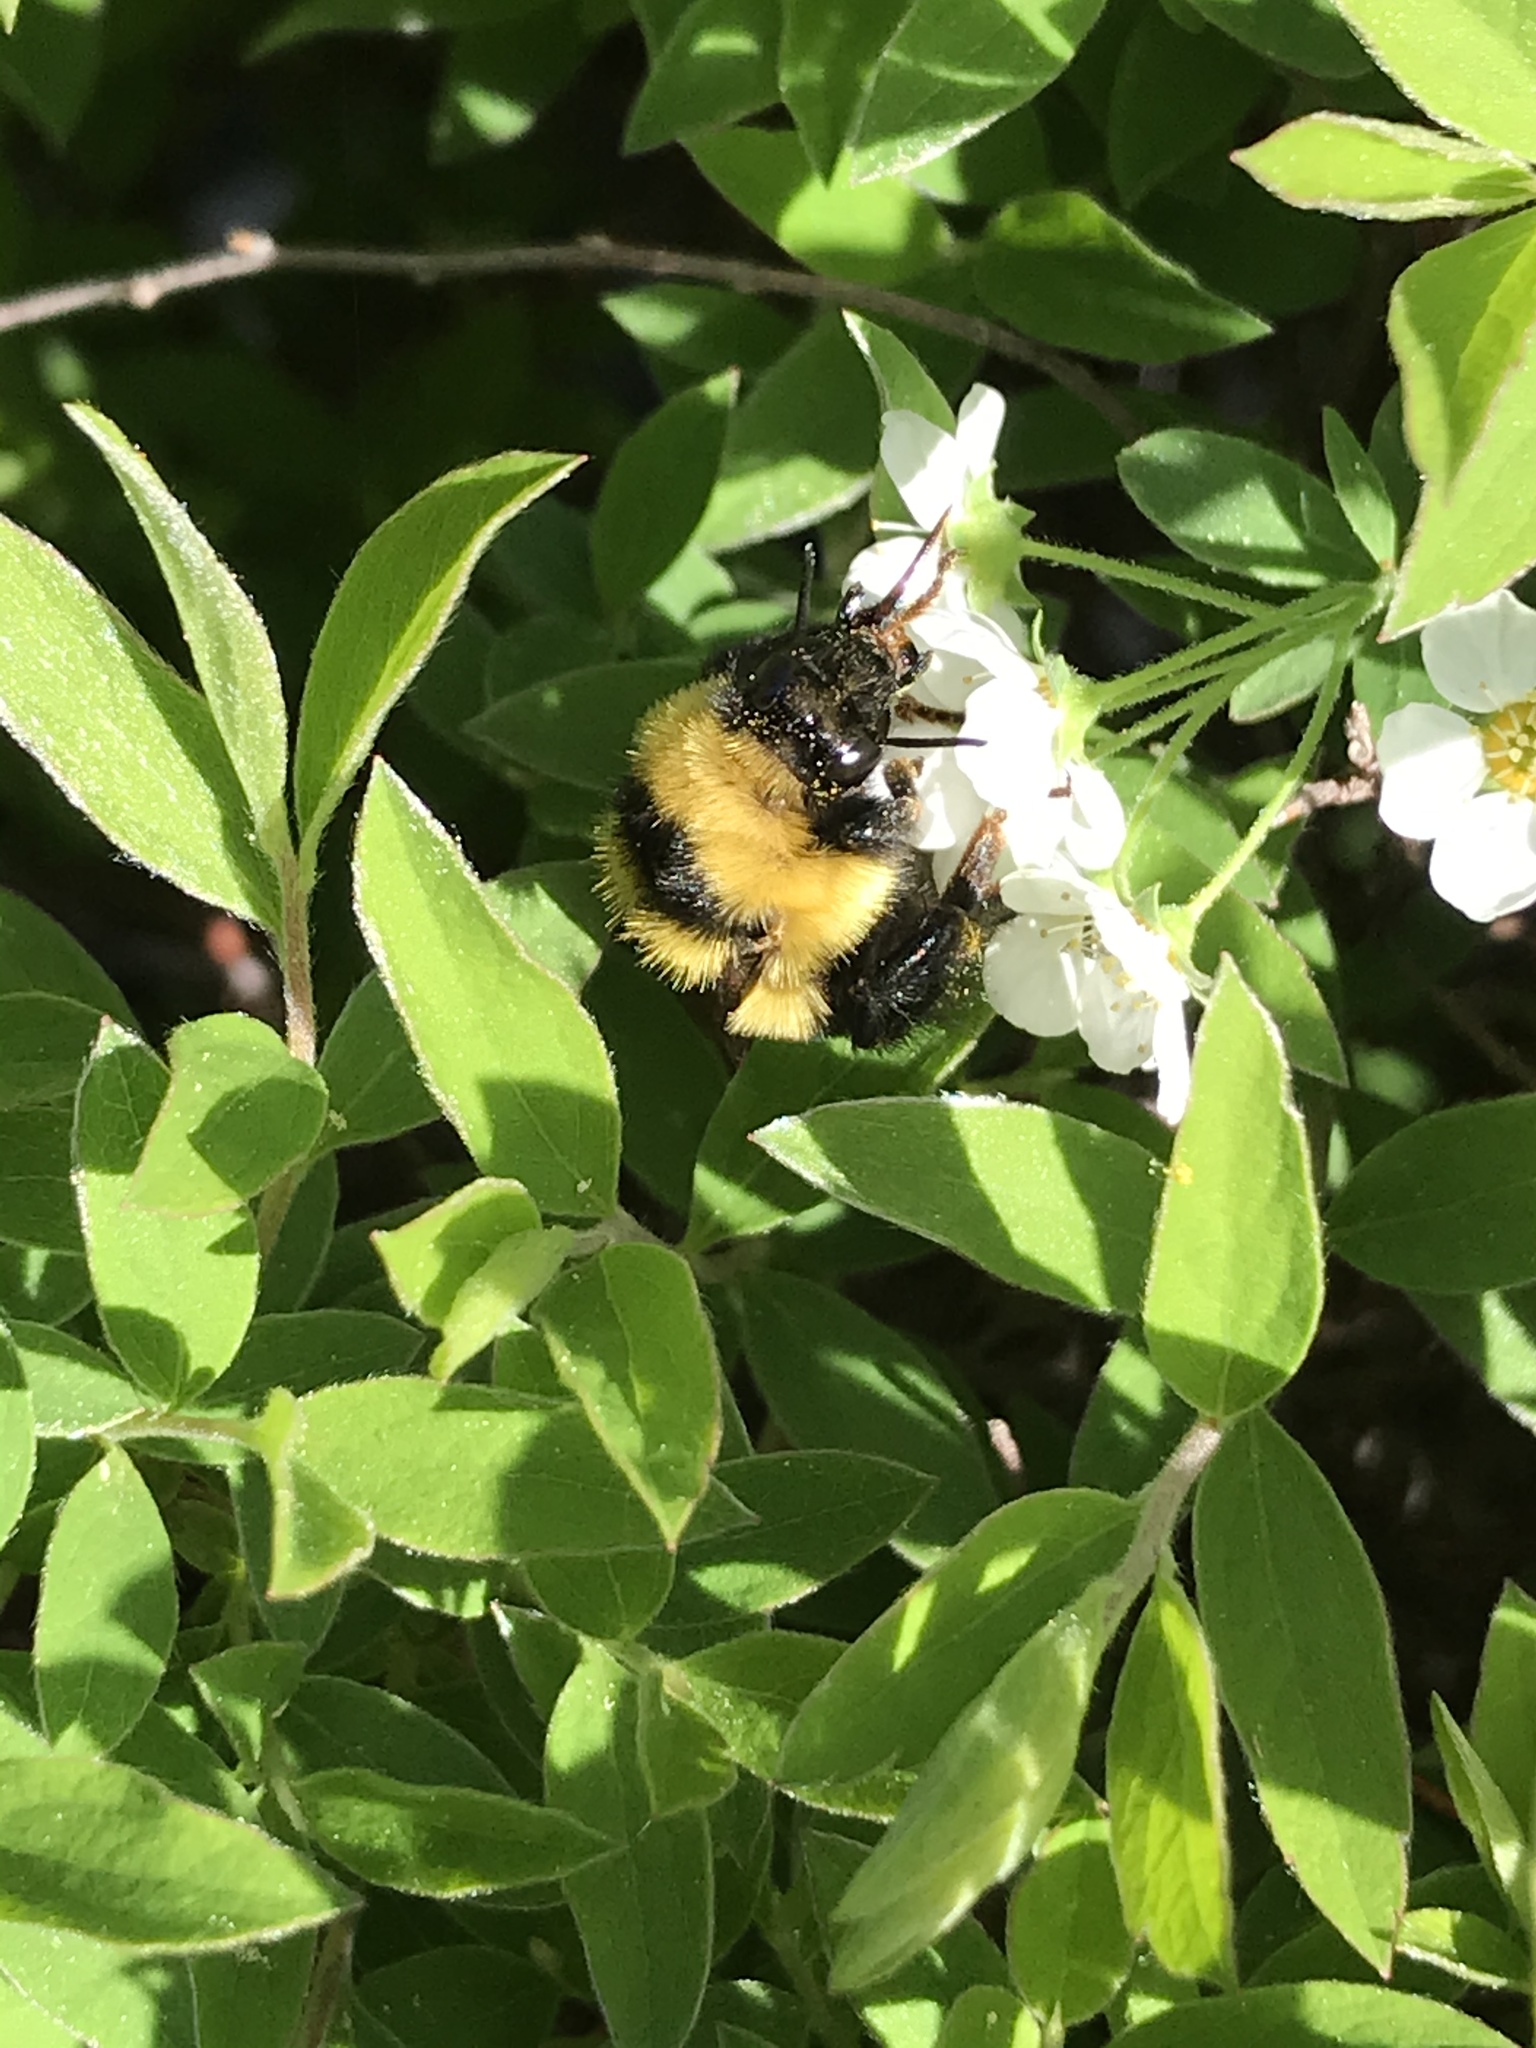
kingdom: Animalia
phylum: Arthropoda
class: Insecta
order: Hymenoptera
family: Apidae
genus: Bombus
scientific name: Bombus rufocinctus
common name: Red-belted bumble bee
